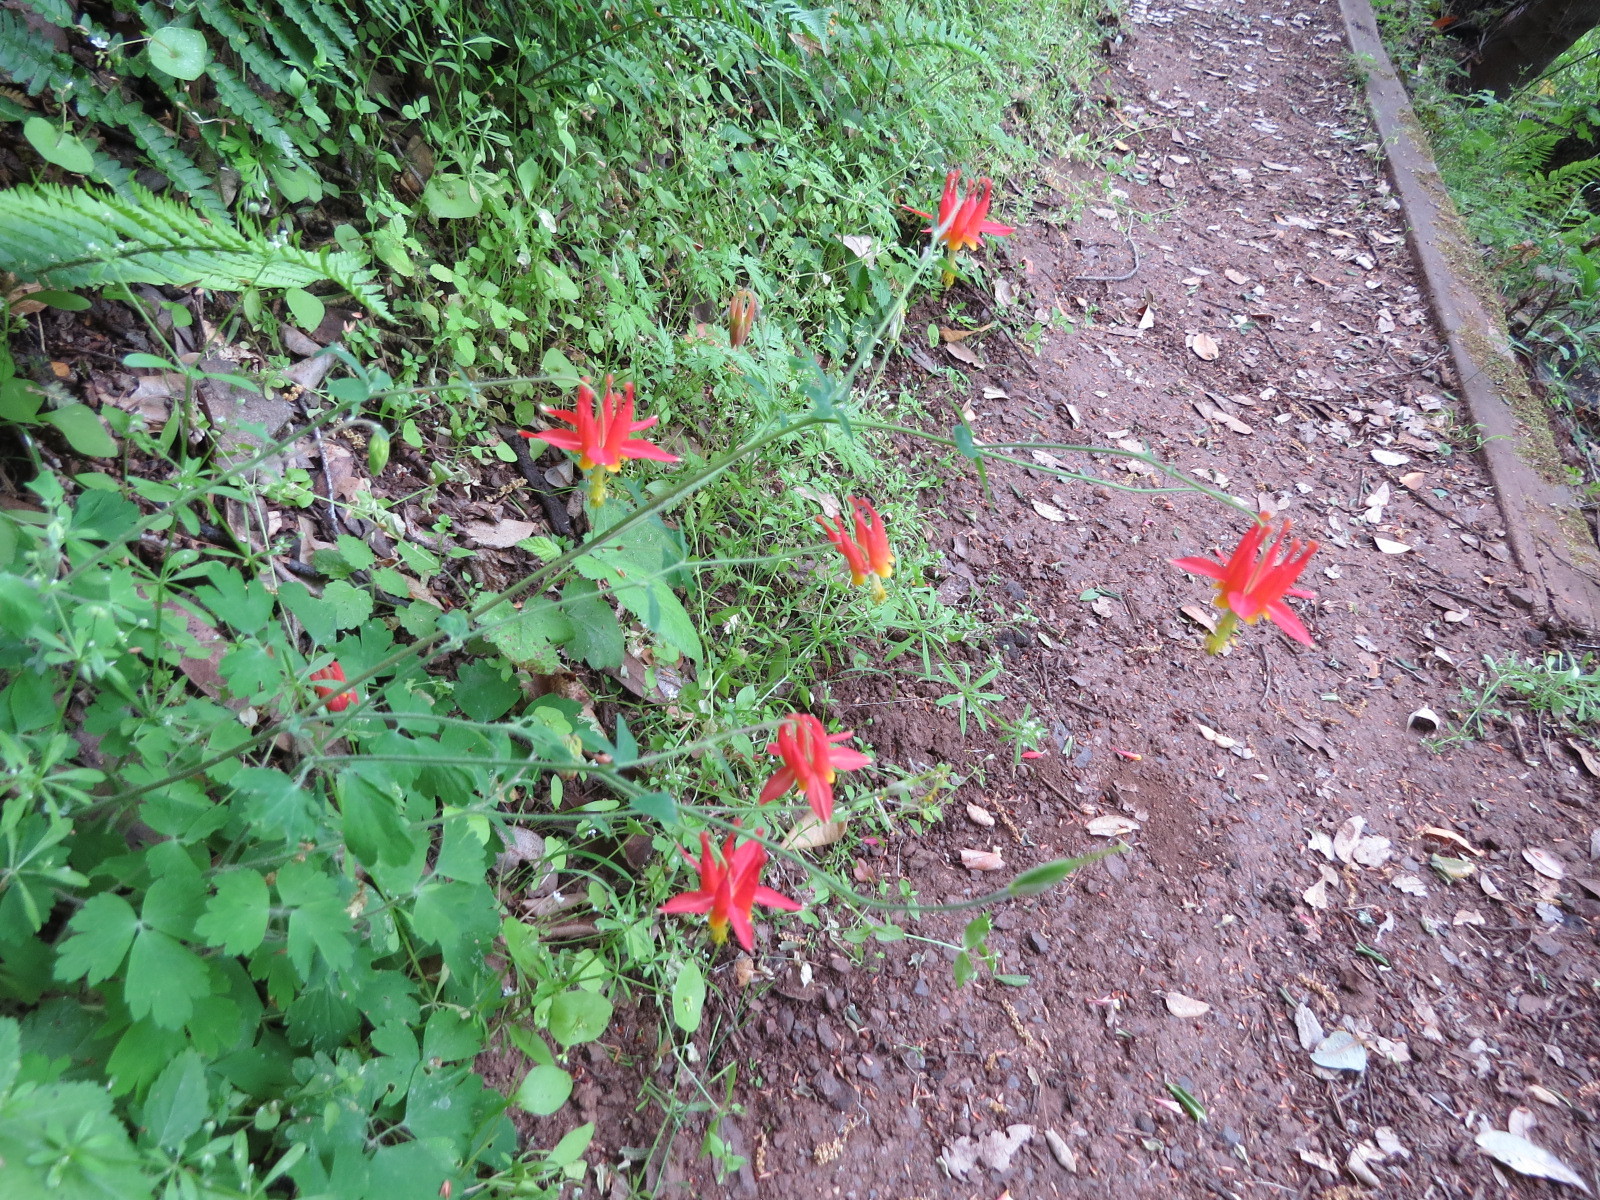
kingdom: Plantae
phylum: Tracheophyta
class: Magnoliopsida
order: Ranunculales
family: Ranunculaceae
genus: Aquilegia
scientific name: Aquilegia formosa
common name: Sitka columbine
